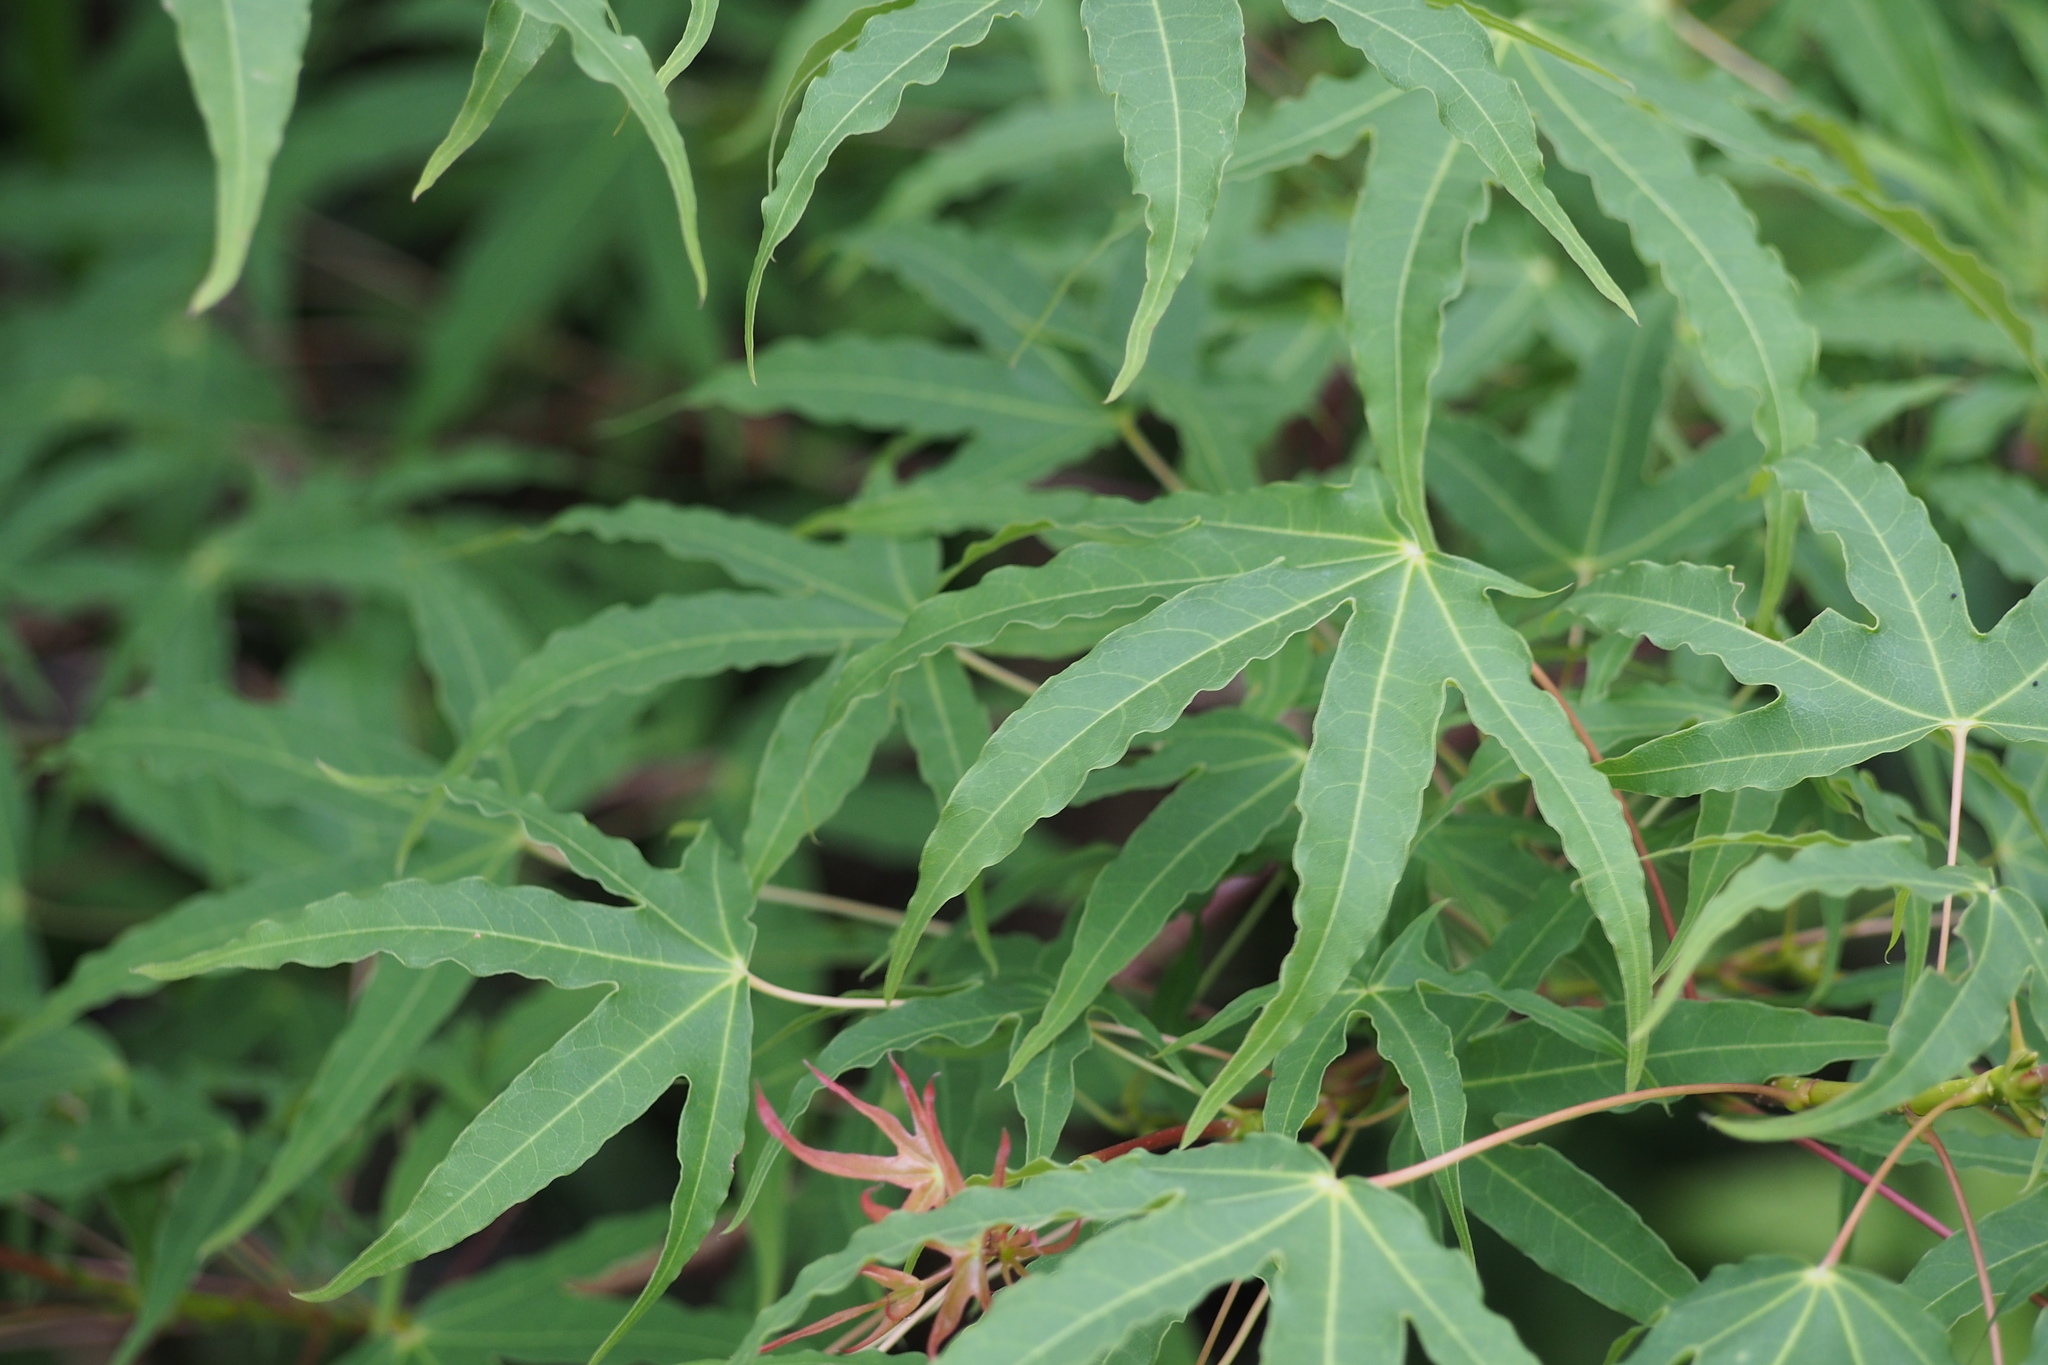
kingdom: Plantae
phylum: Tracheophyta
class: Magnoliopsida
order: Sapindales
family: Sapindaceae
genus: Acer
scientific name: Acer pictum
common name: The painted maple
